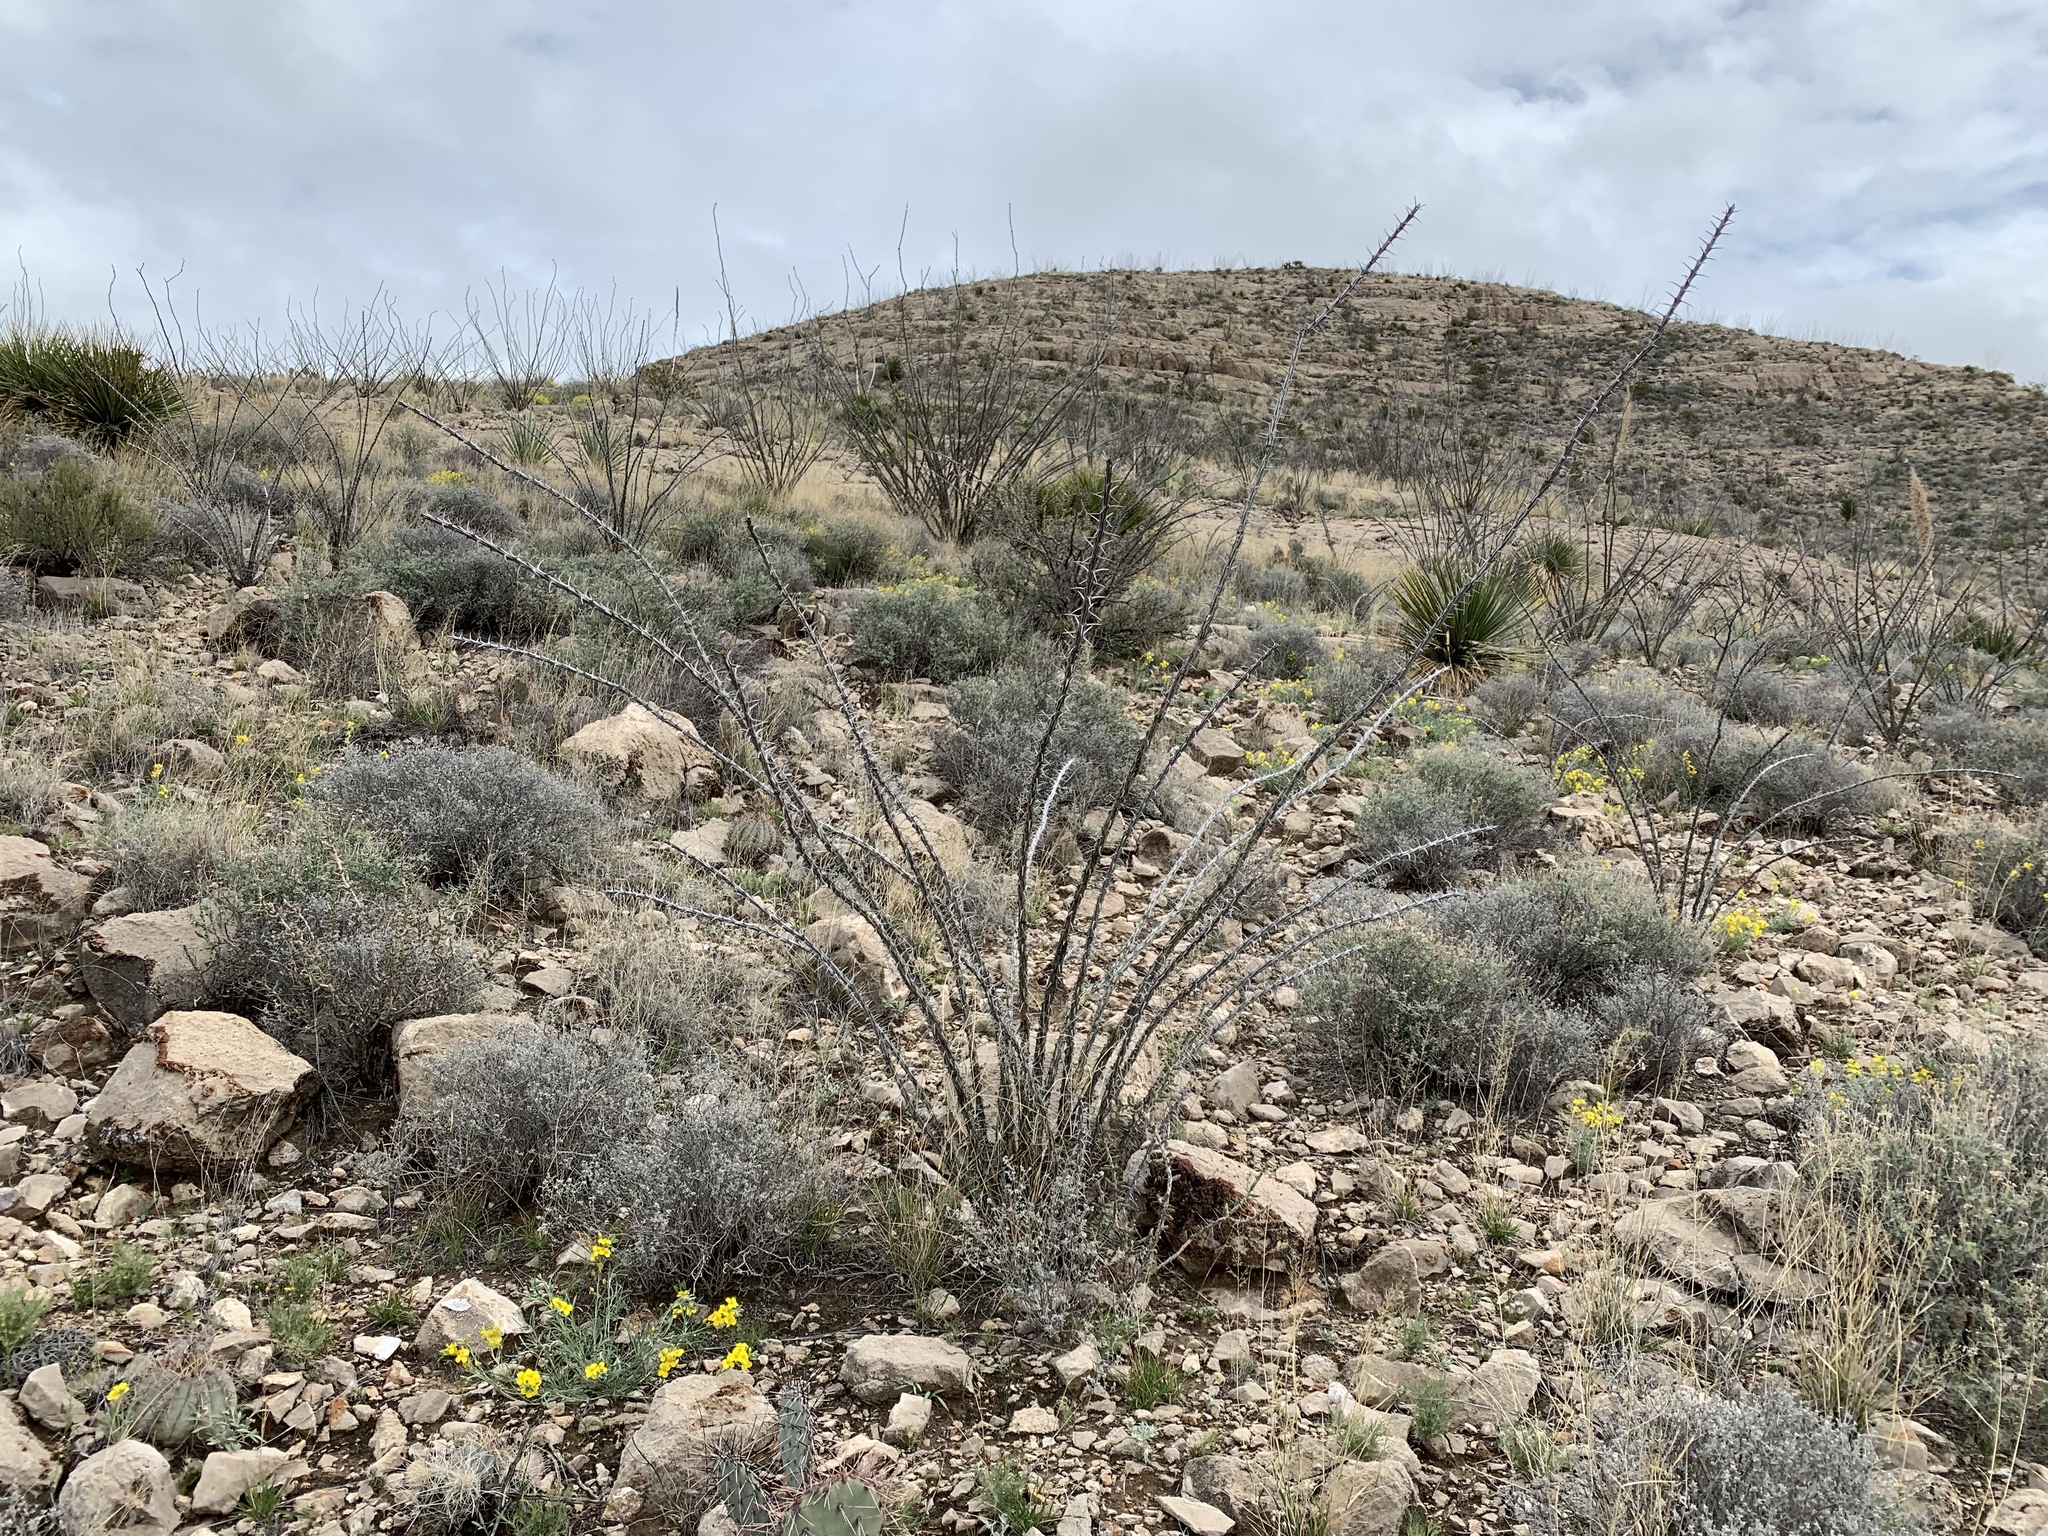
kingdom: Plantae
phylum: Tracheophyta
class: Magnoliopsida
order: Ericales
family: Fouquieriaceae
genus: Fouquieria
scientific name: Fouquieria splendens
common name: Vine-cactus
